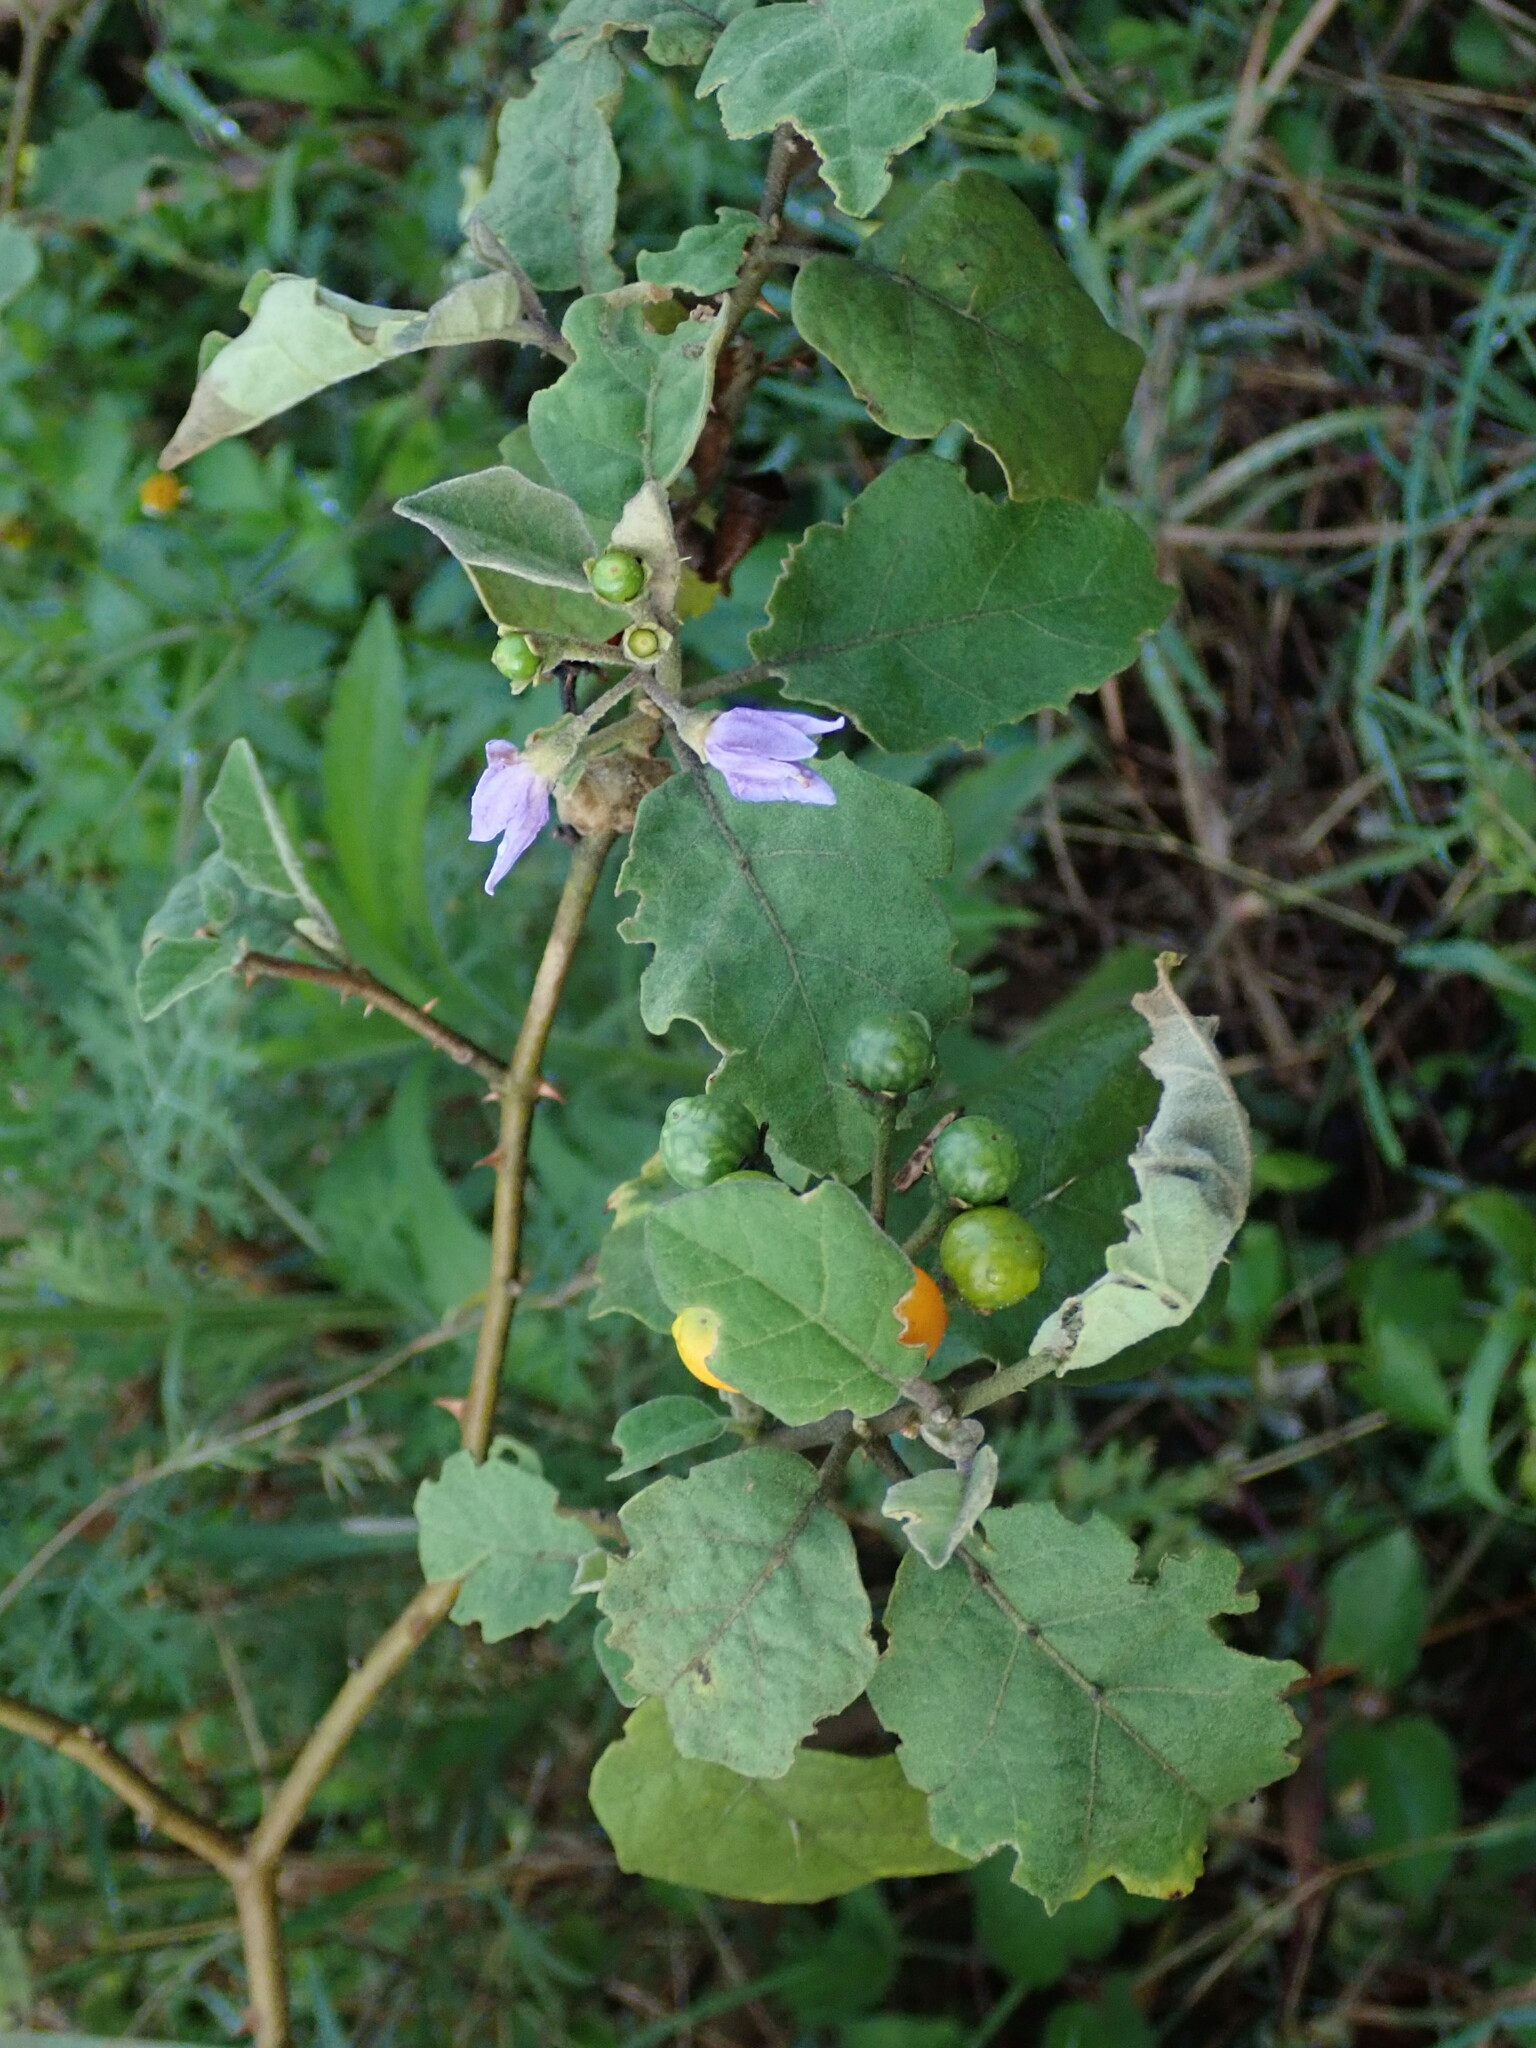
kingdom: Plantae
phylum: Tracheophyta
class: Magnoliopsida
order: Solanales
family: Solanaceae
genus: Solanum
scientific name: Solanum violaceum
